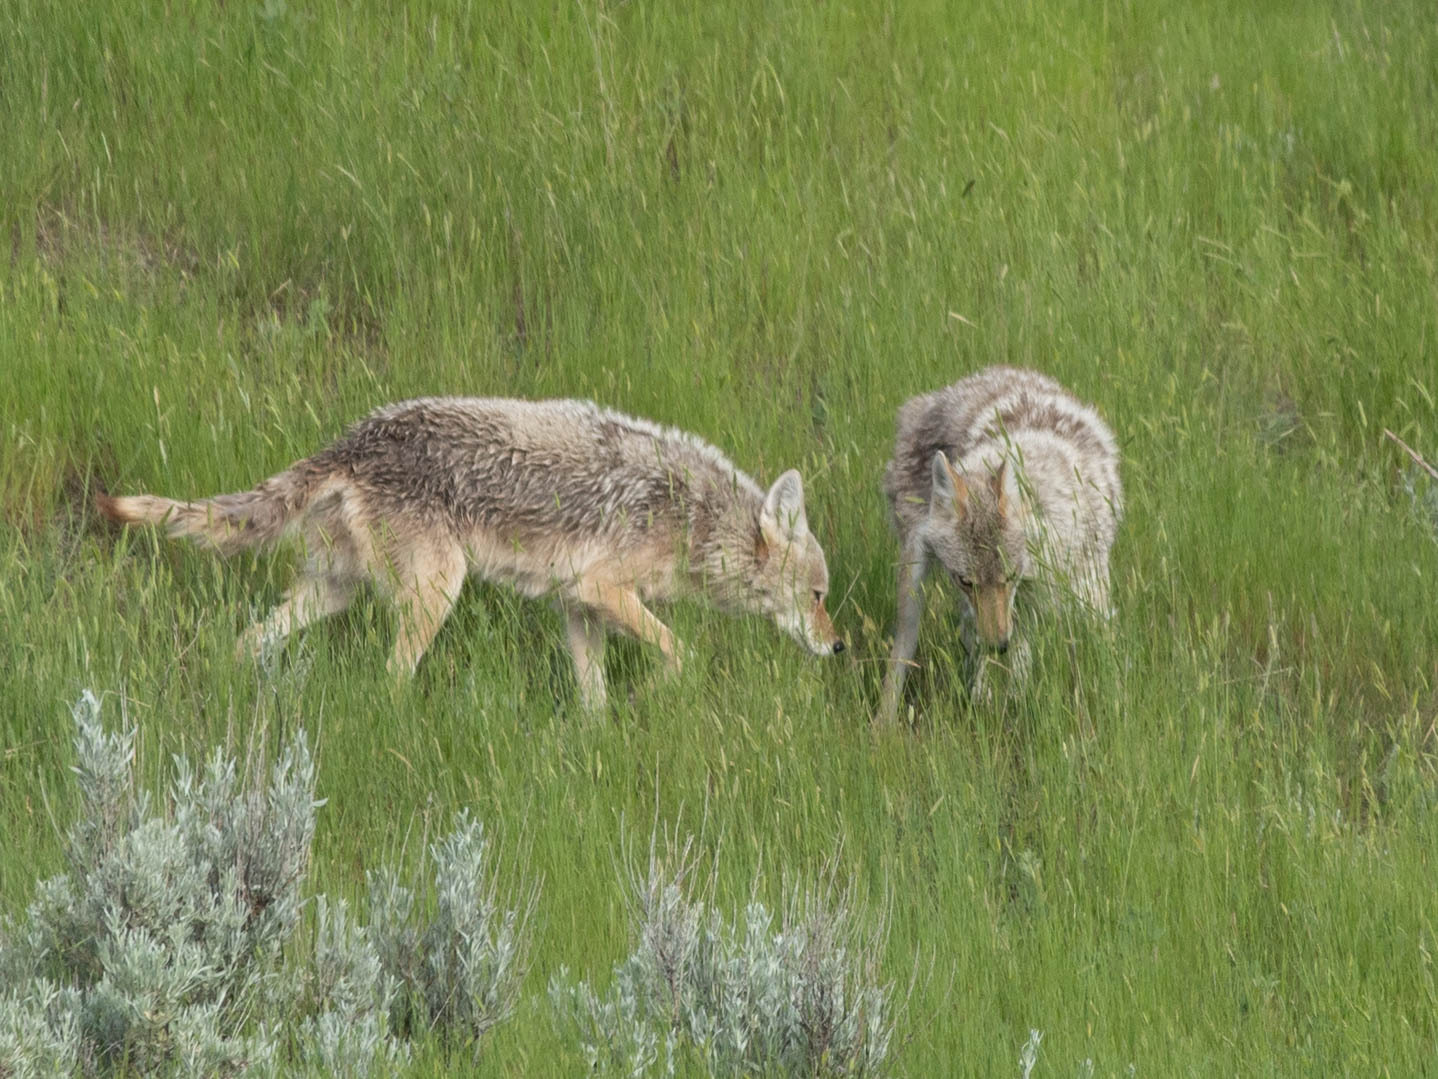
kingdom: Animalia
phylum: Chordata
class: Mammalia
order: Carnivora
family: Canidae
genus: Canis
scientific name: Canis latrans
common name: Coyote
